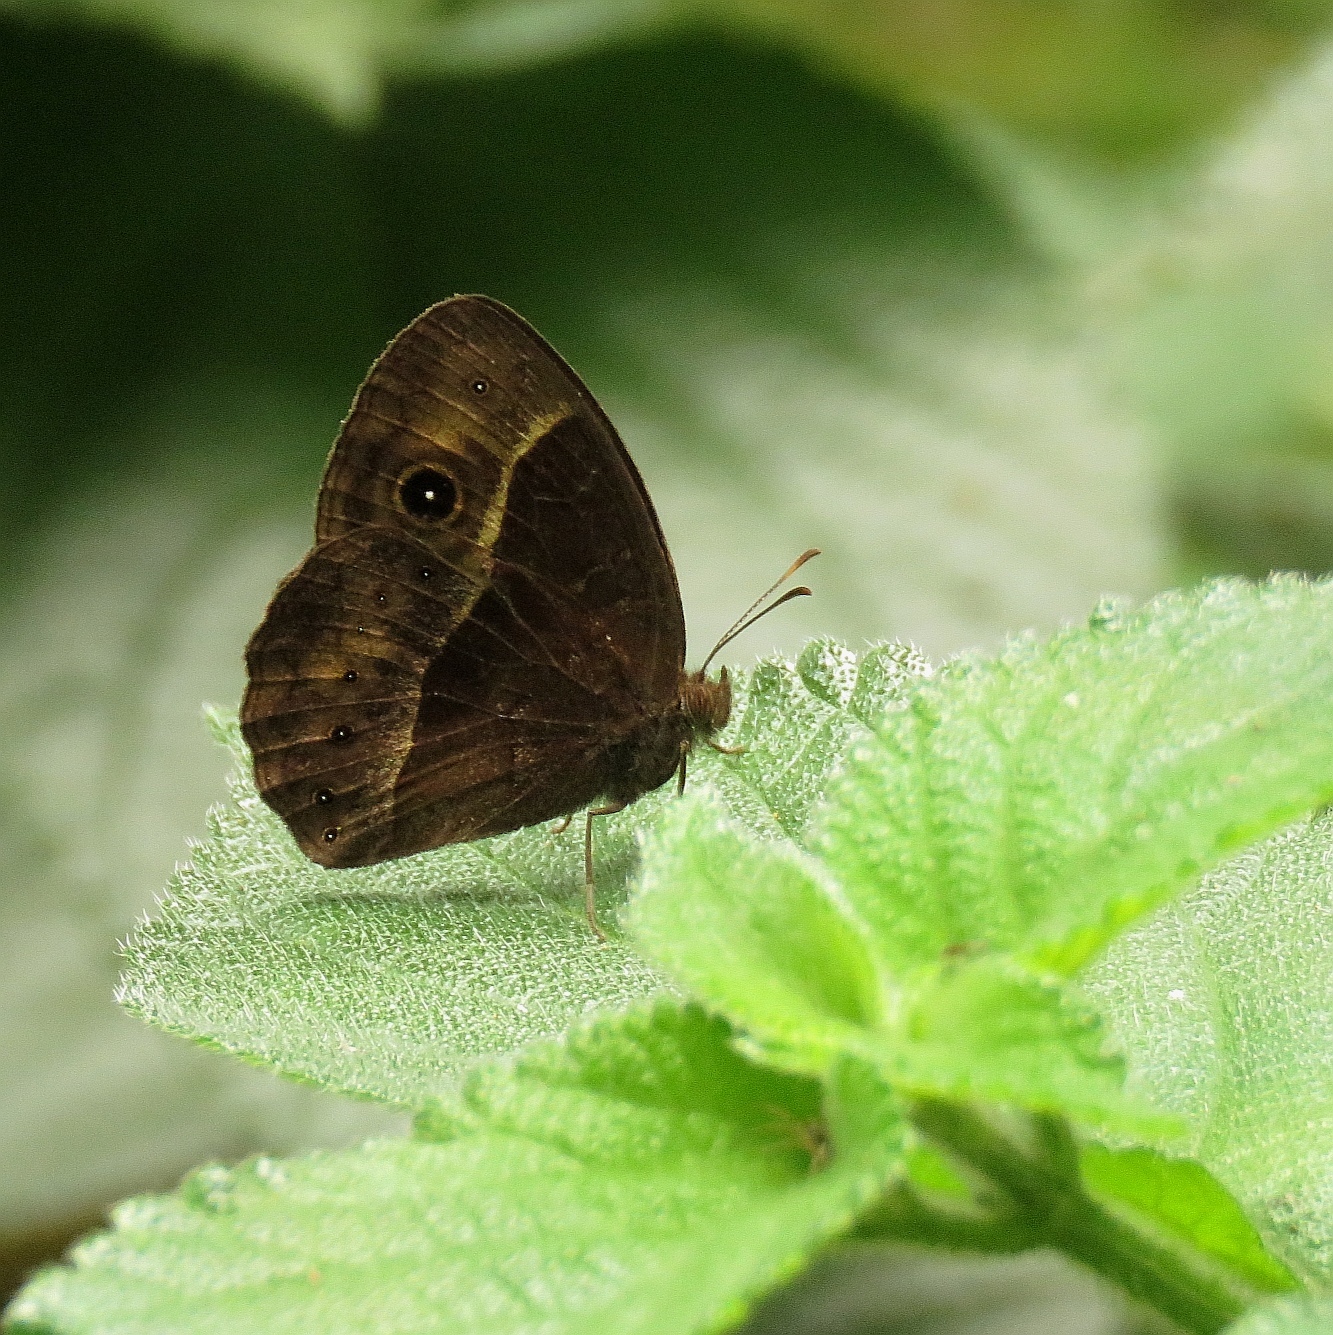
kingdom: Animalia
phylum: Arthropoda
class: Insecta
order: Lepidoptera
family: Nymphalidae
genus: Mycalesis
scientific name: Mycalesis rhacotis
